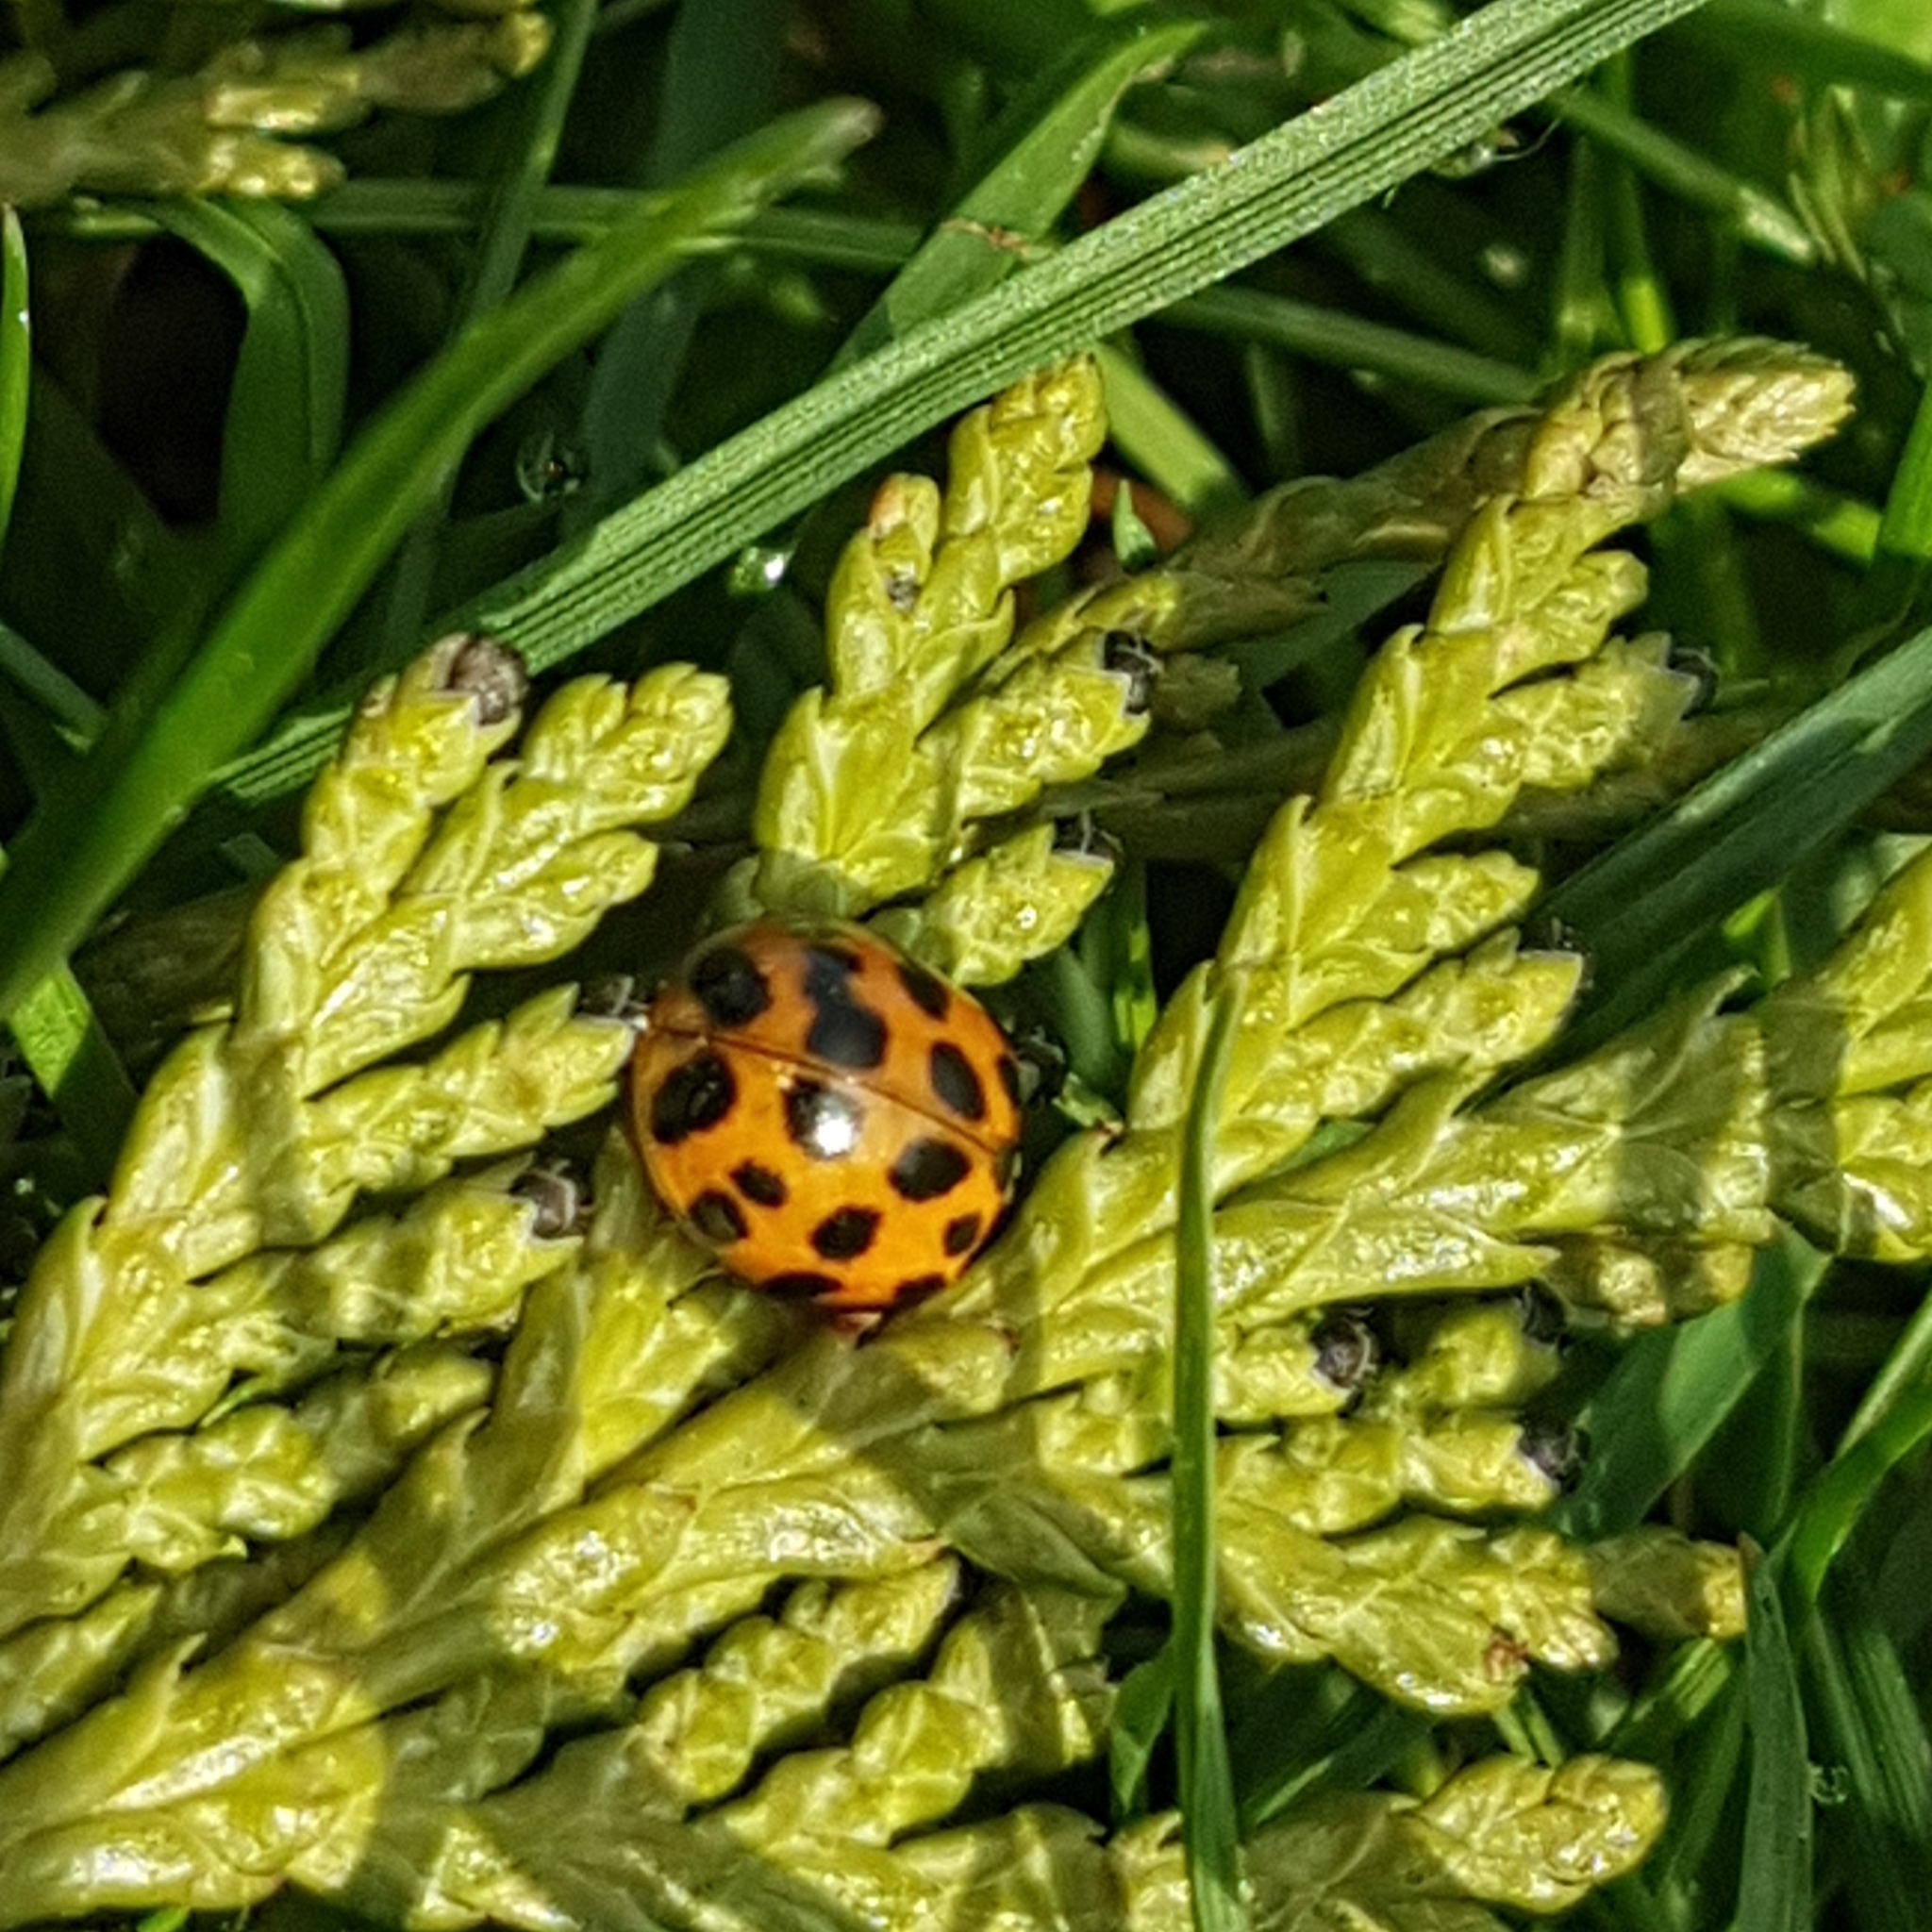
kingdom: Animalia
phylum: Arthropoda
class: Insecta
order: Coleoptera
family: Coccinellidae
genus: Harmonia
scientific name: Harmonia axyridis
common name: Harlequin ladybird
